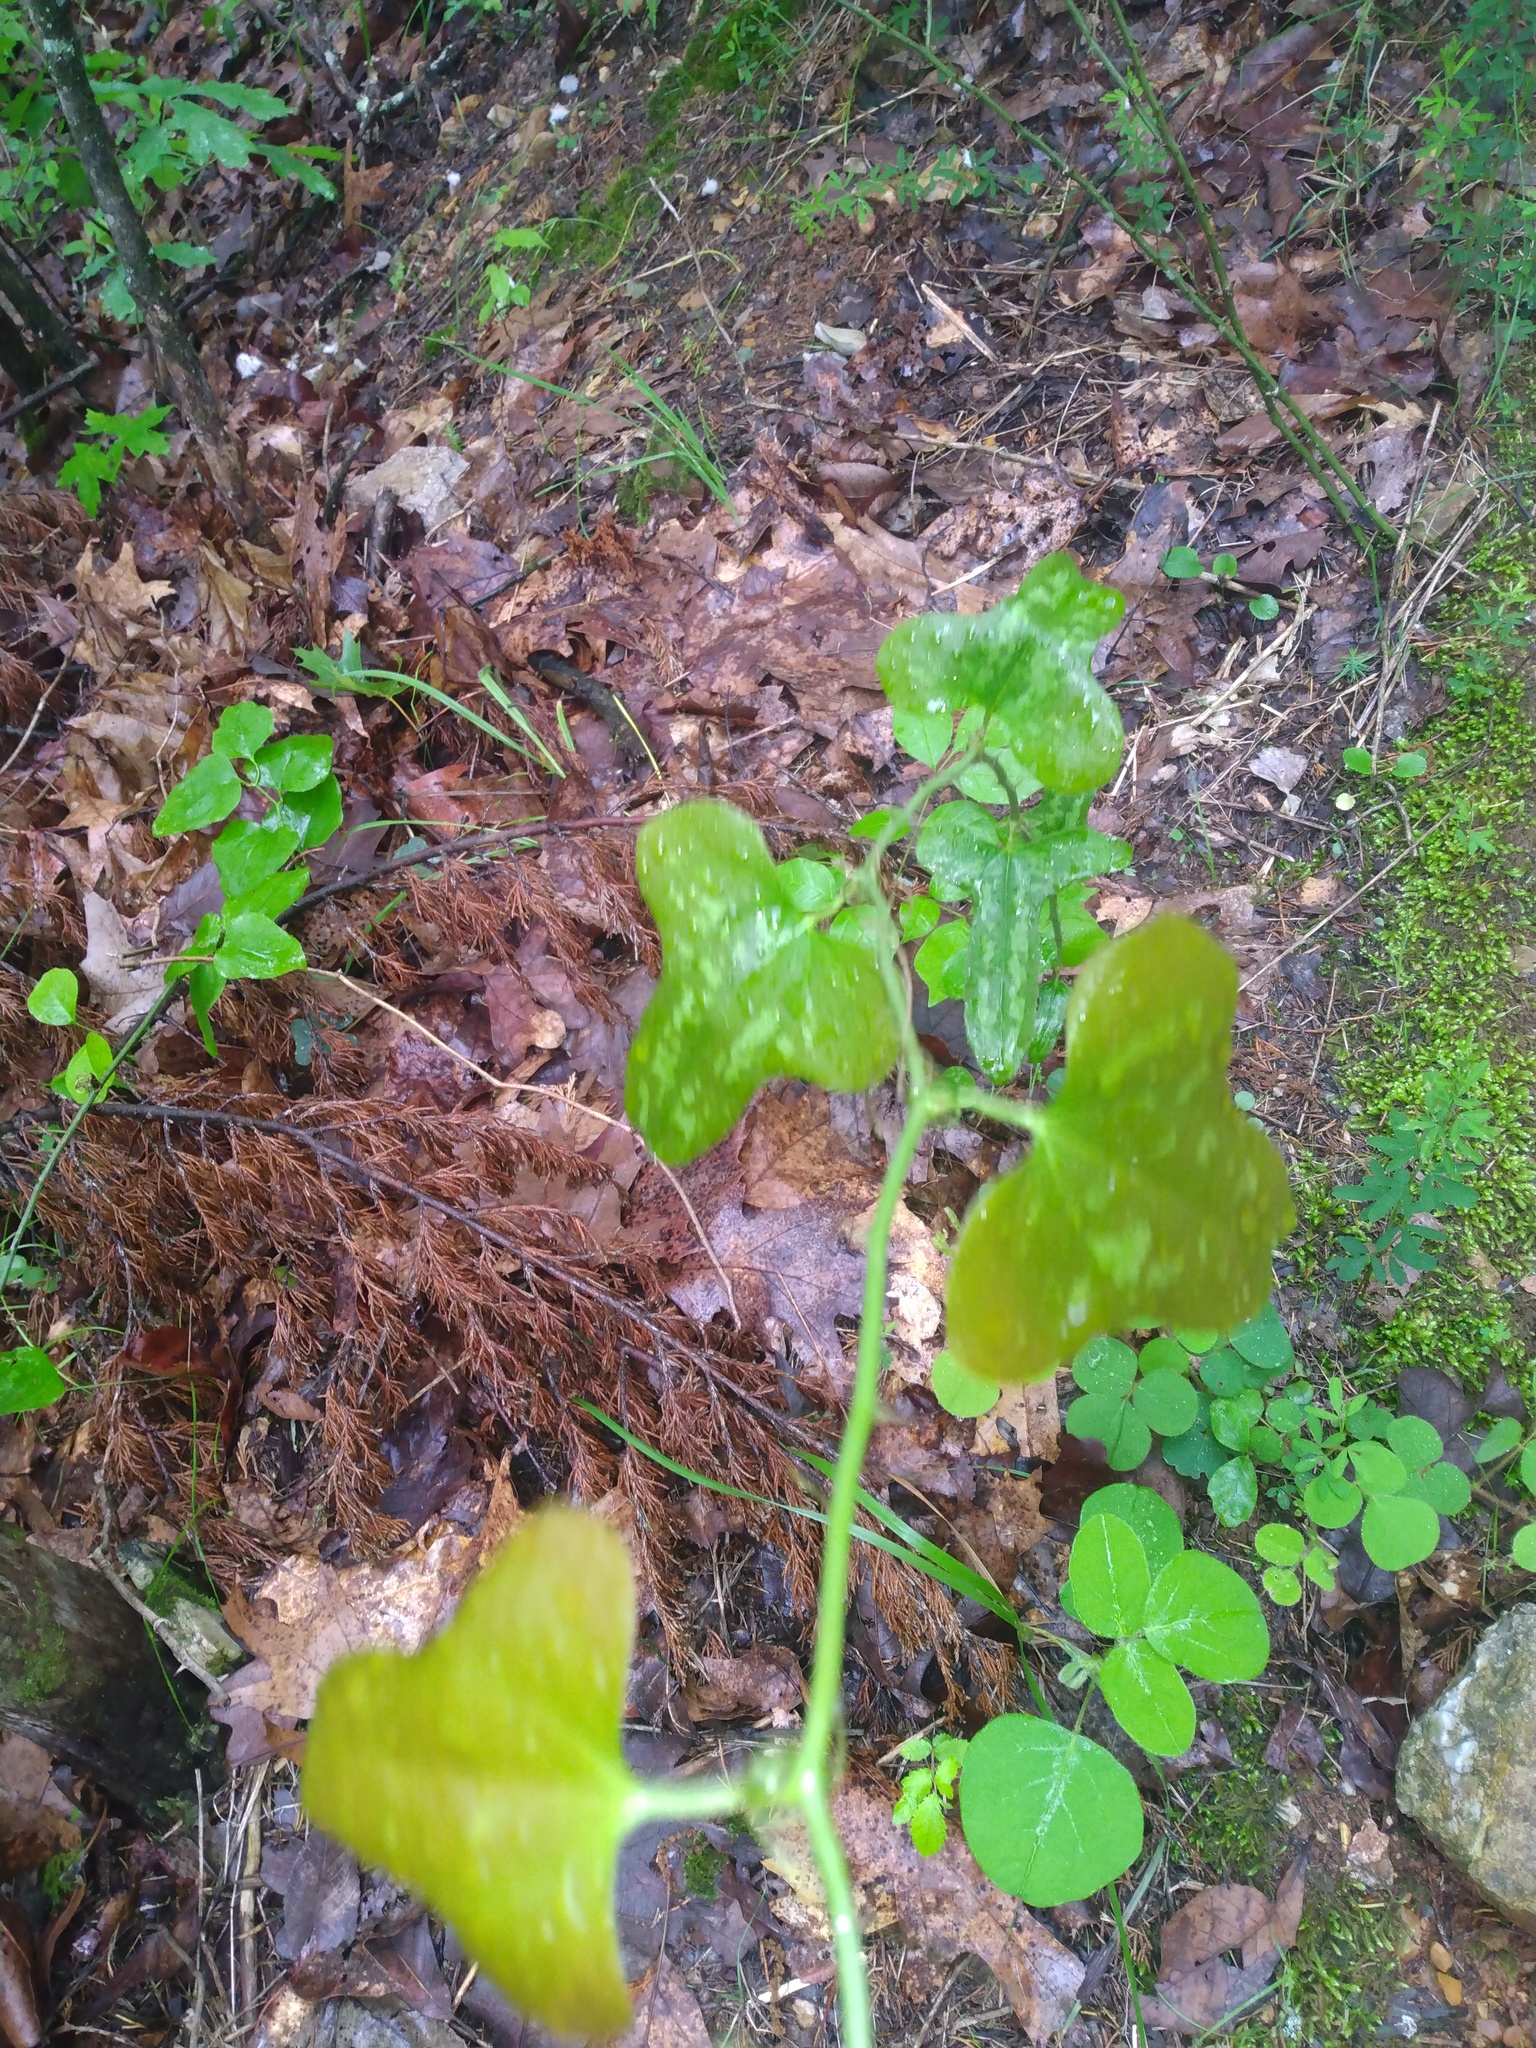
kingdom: Plantae
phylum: Tracheophyta
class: Liliopsida
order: Liliales
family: Smilacaceae
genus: Smilax
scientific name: Smilax bona-nox
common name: Catbrier
